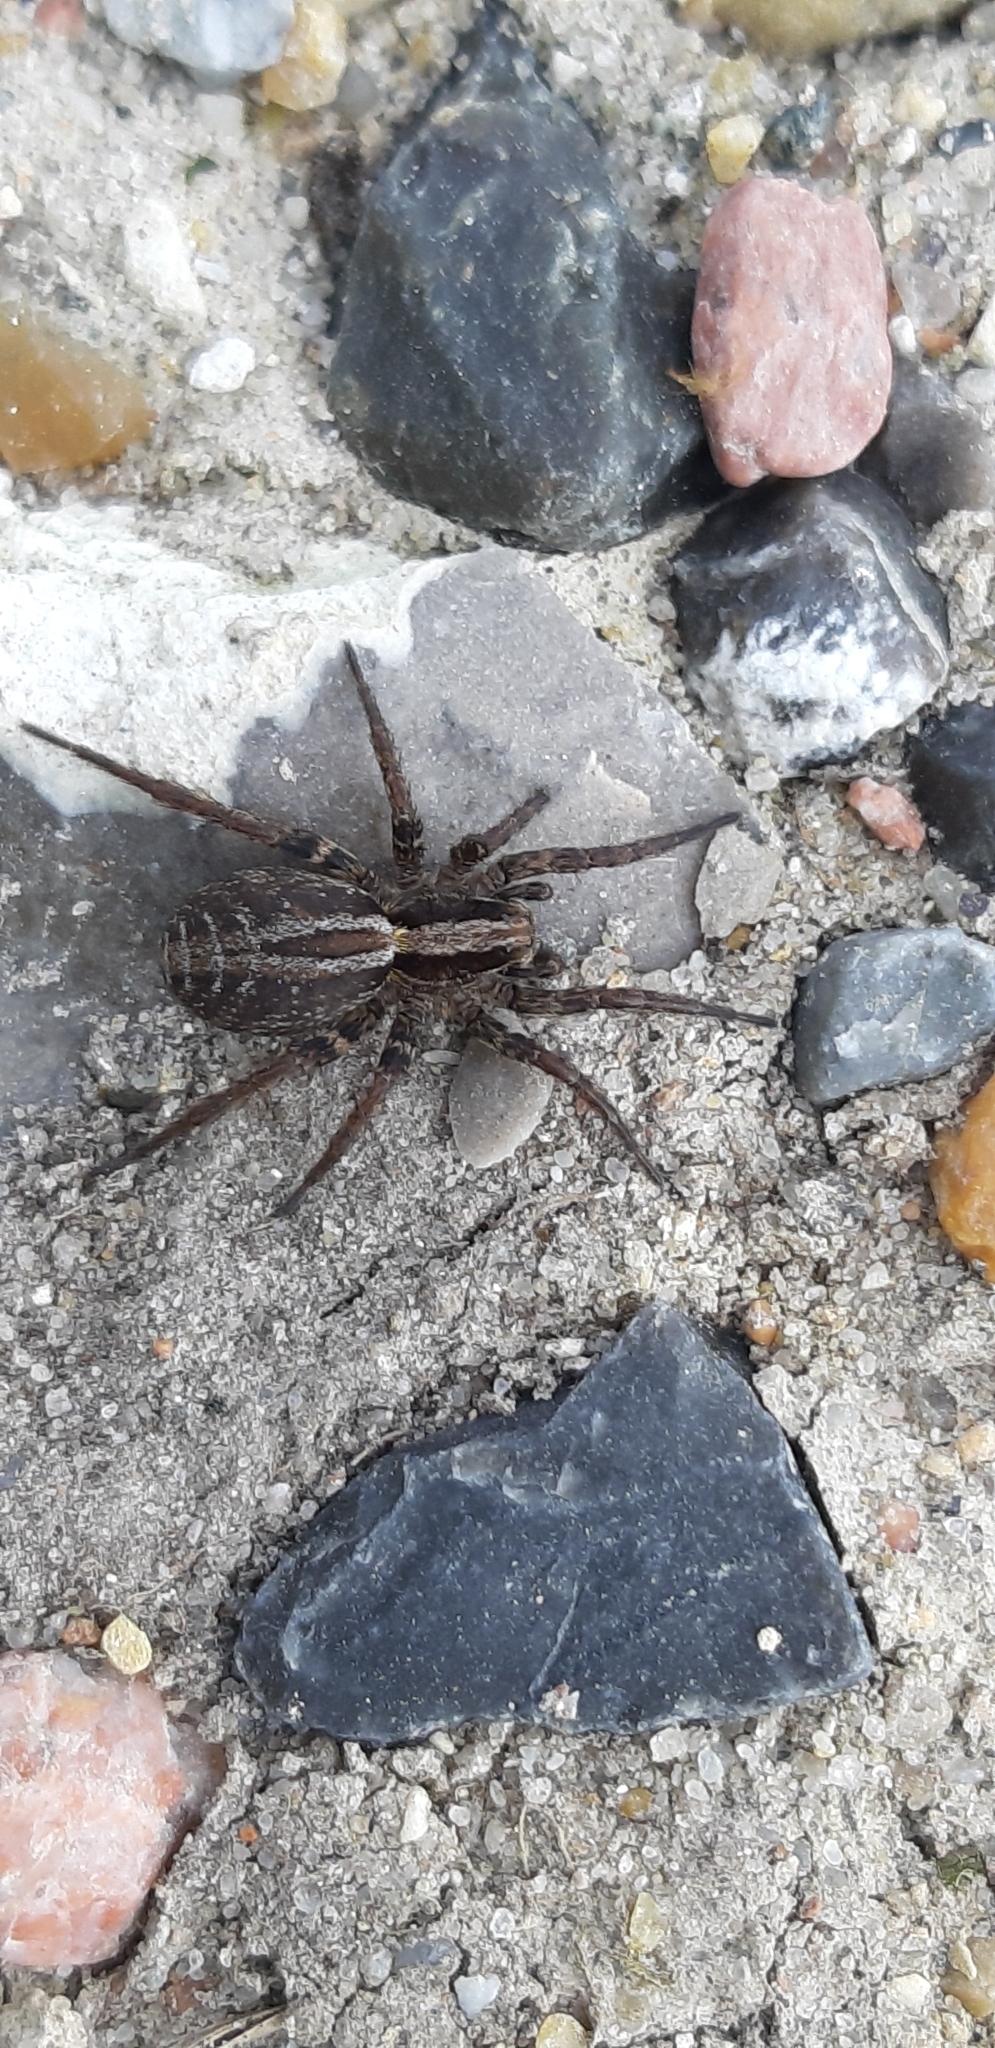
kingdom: Animalia
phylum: Arthropoda
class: Arachnida
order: Araneae
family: Lycosidae
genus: Alopecosa
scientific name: Alopecosa pulverulenta
